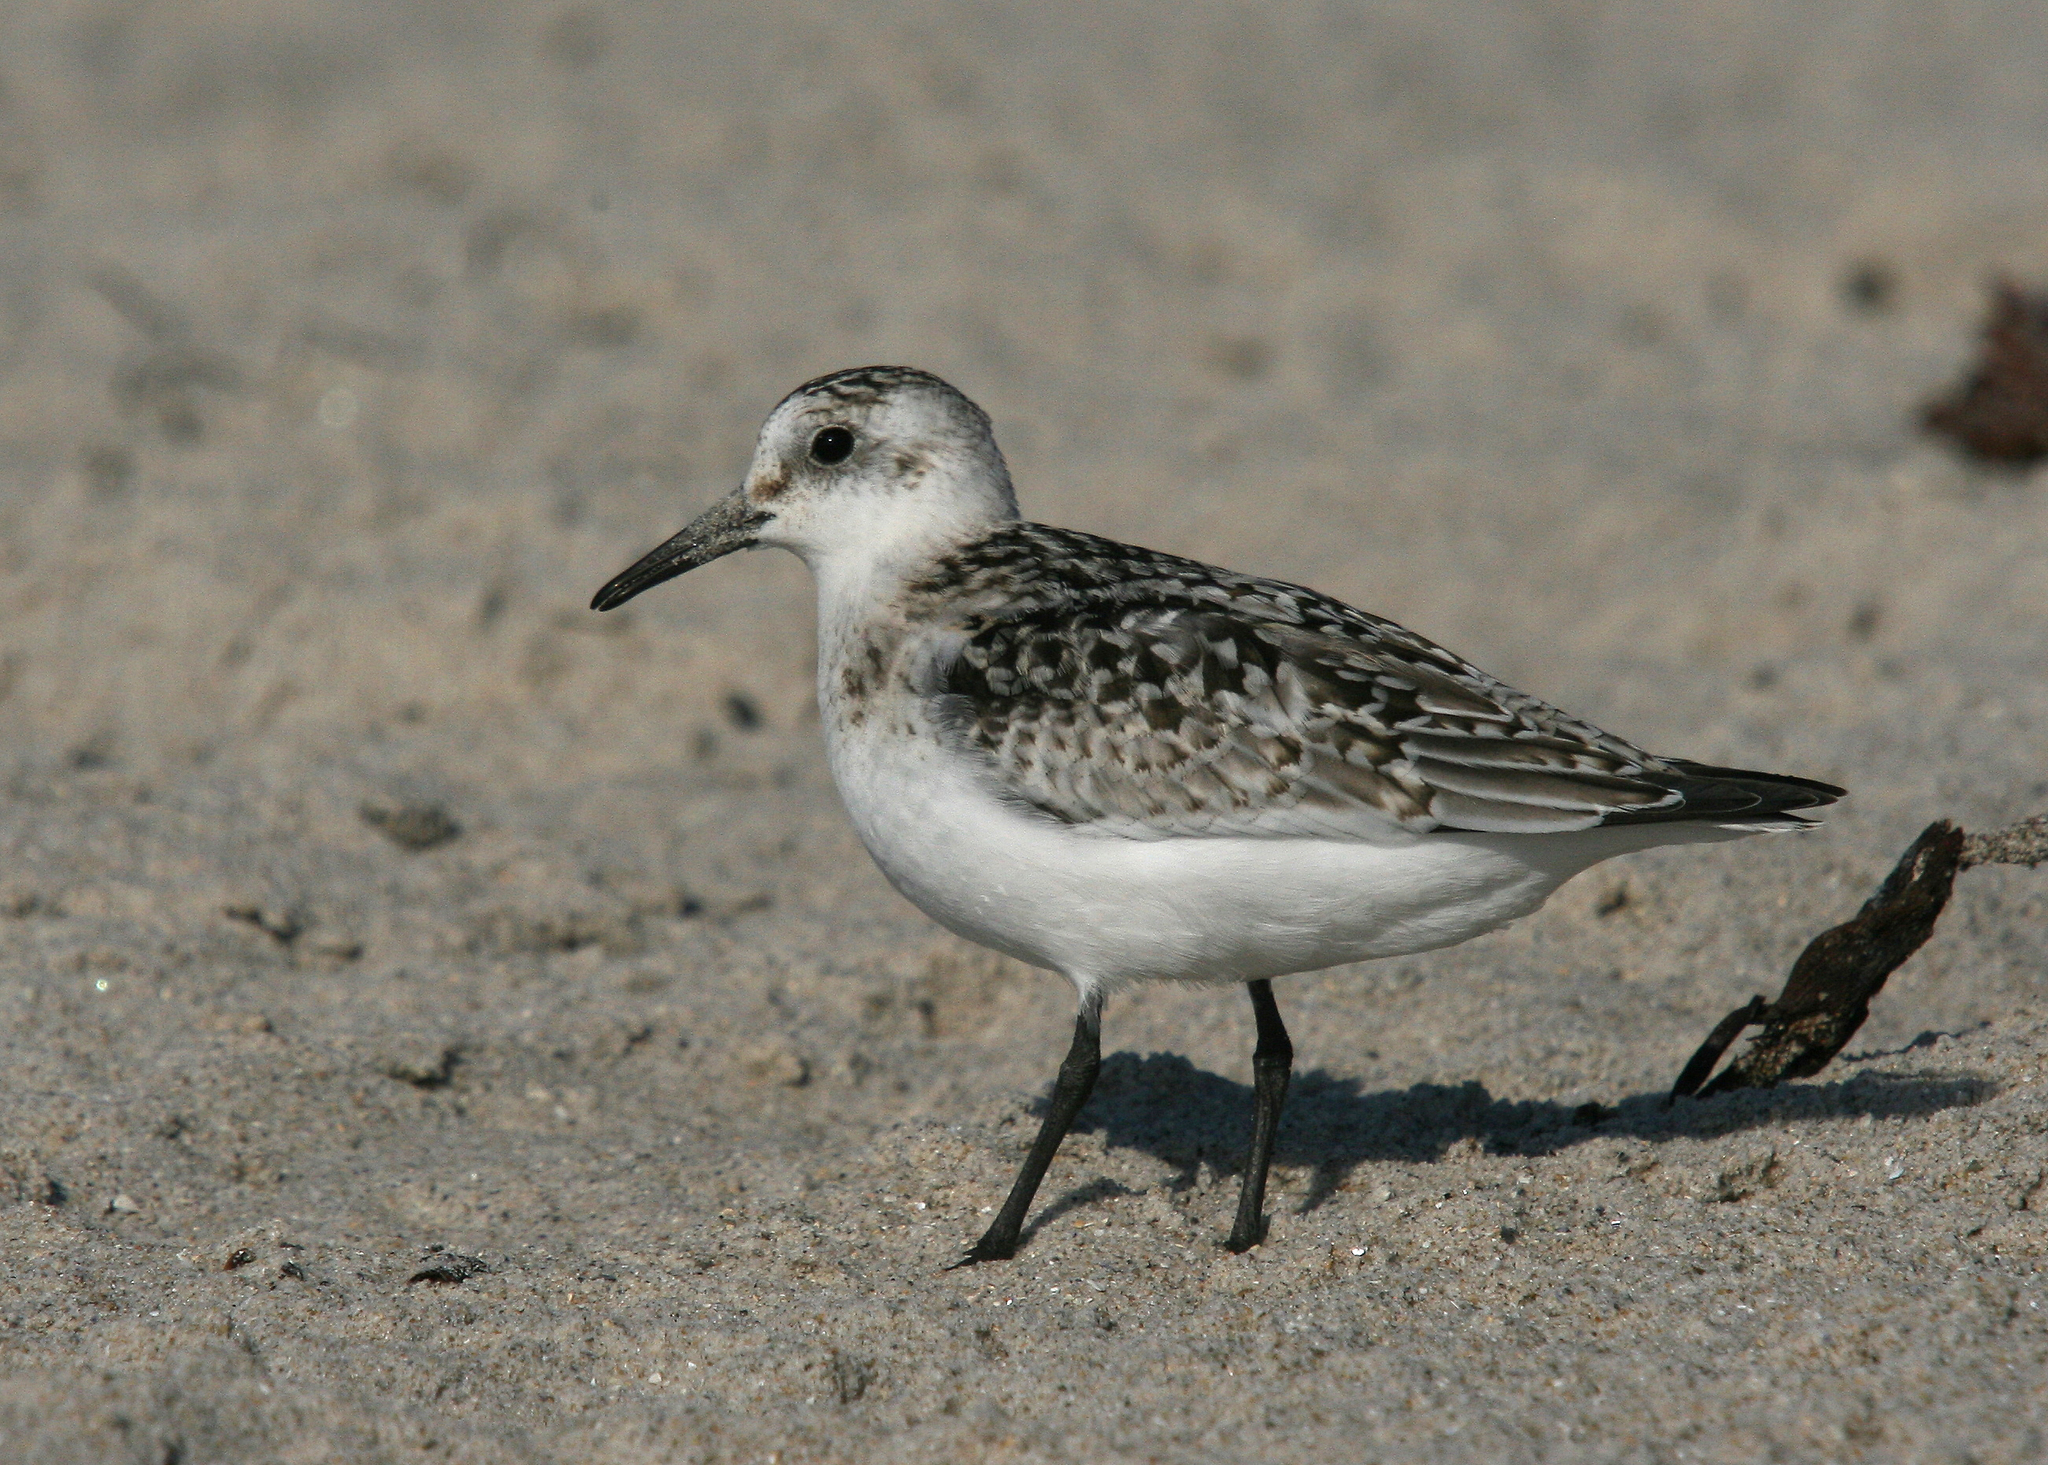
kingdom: Animalia
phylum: Chordata
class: Aves
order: Charadriiformes
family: Scolopacidae
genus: Calidris
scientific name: Calidris alba
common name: Sanderling
